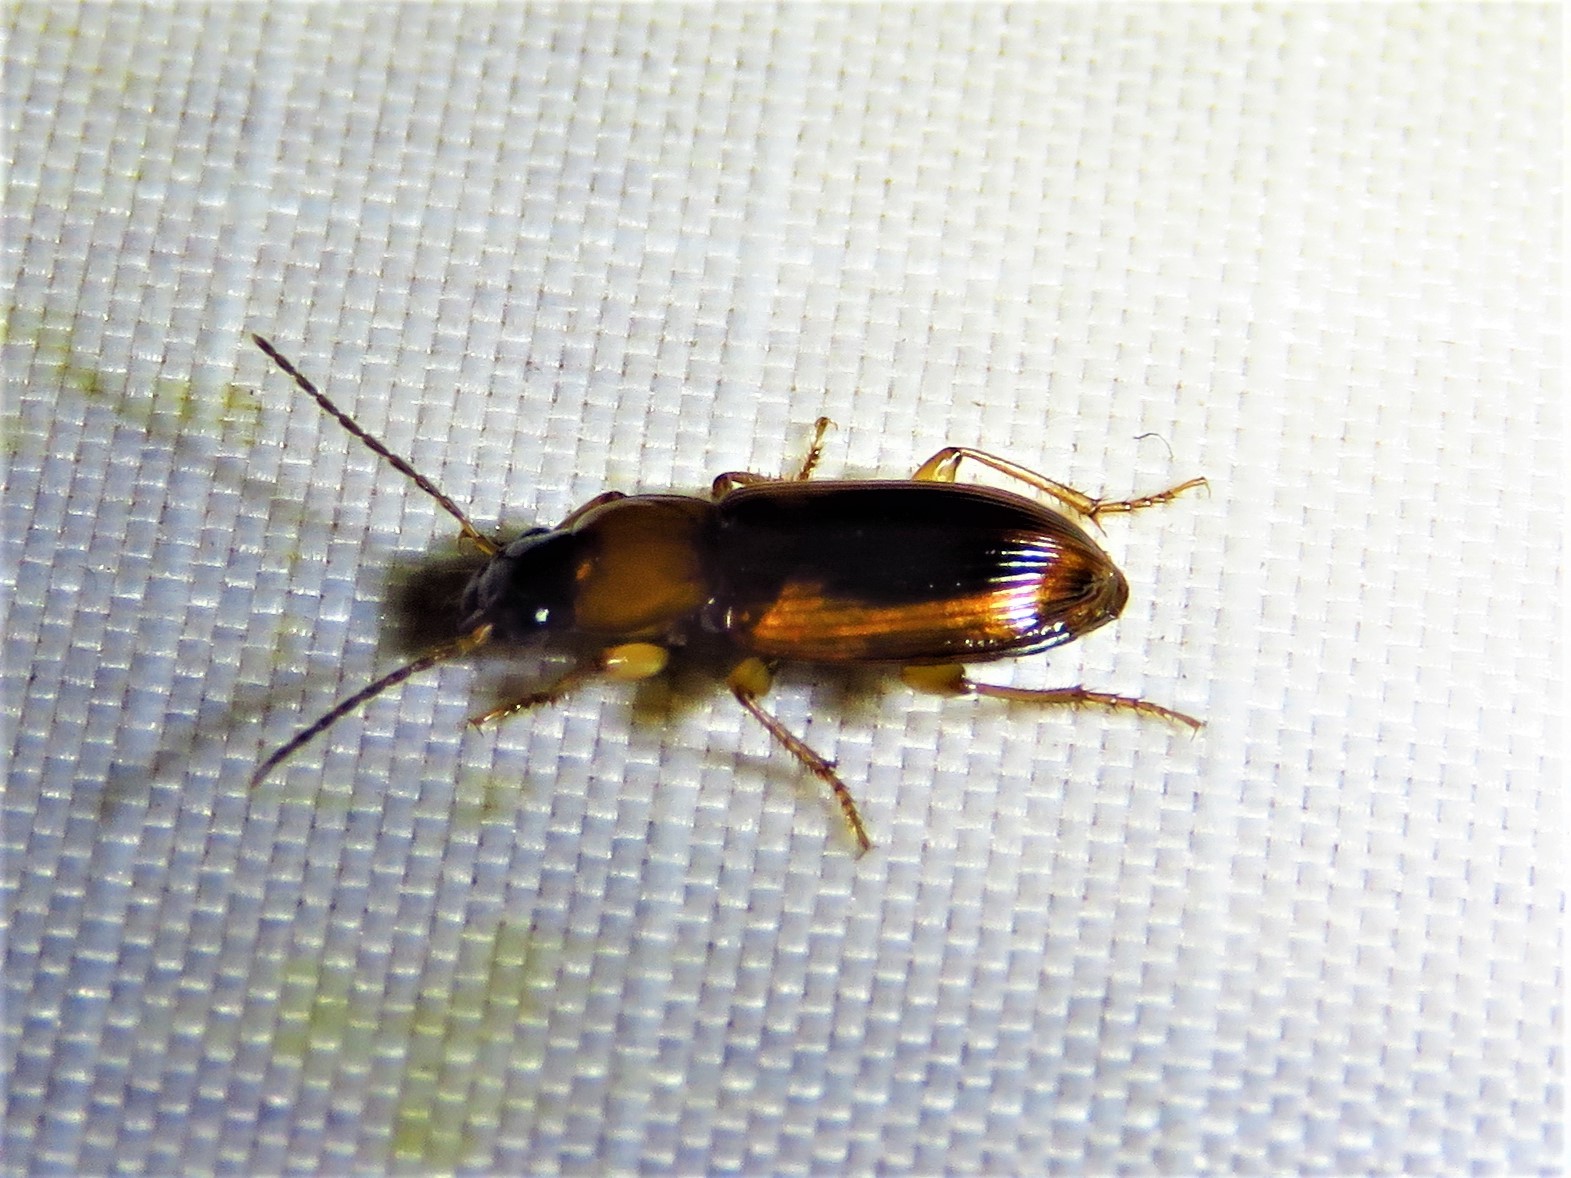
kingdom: Animalia
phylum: Arthropoda
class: Insecta
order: Coleoptera
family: Carabidae
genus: Stenolophus
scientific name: Stenolophus dissimilis
